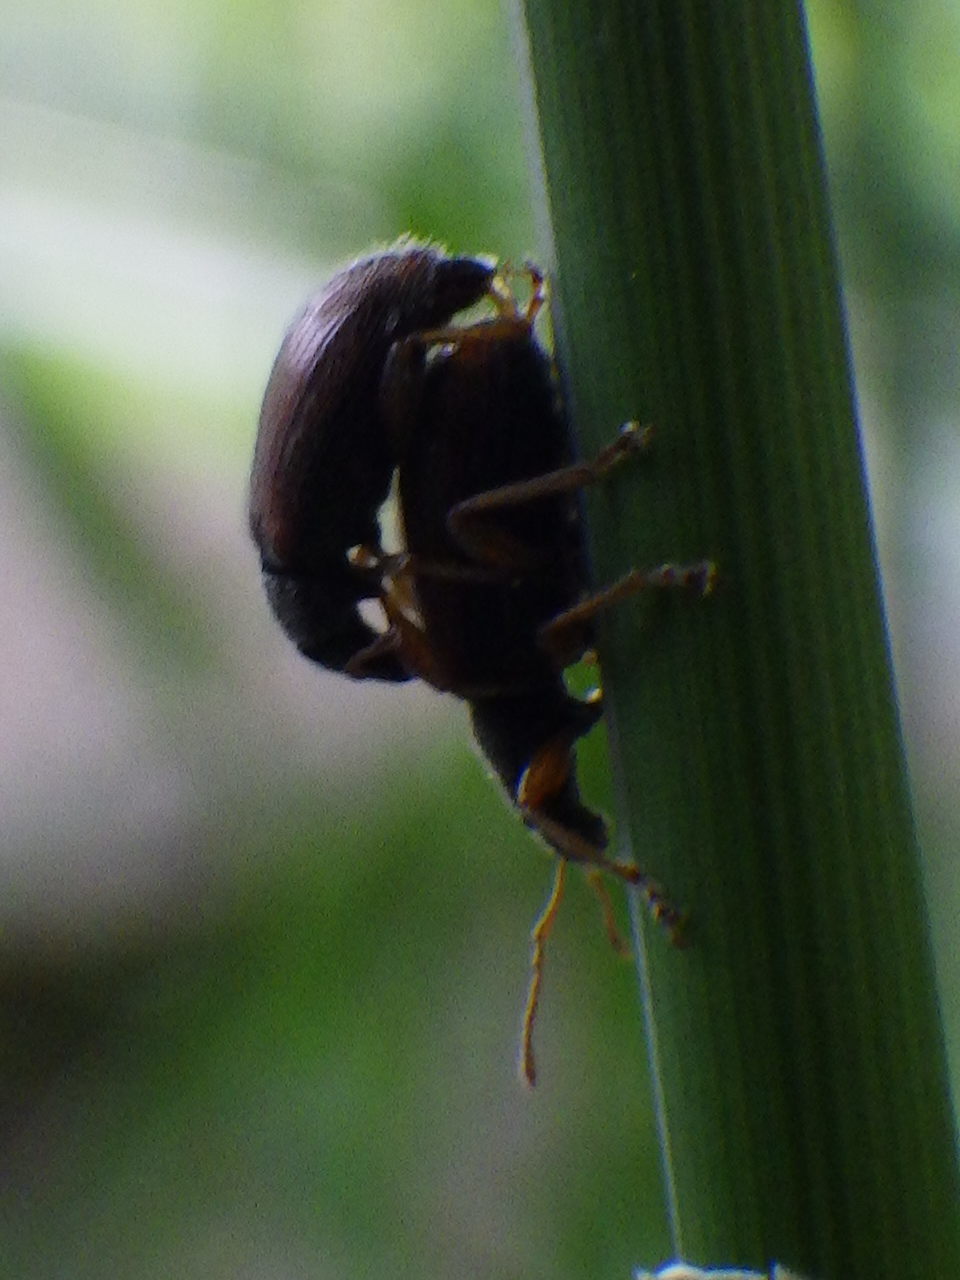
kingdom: Animalia
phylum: Arthropoda
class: Insecta
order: Coleoptera
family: Curculionidae
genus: Phyllobius
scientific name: Phyllobius oblongus
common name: Brown leaf weevil
